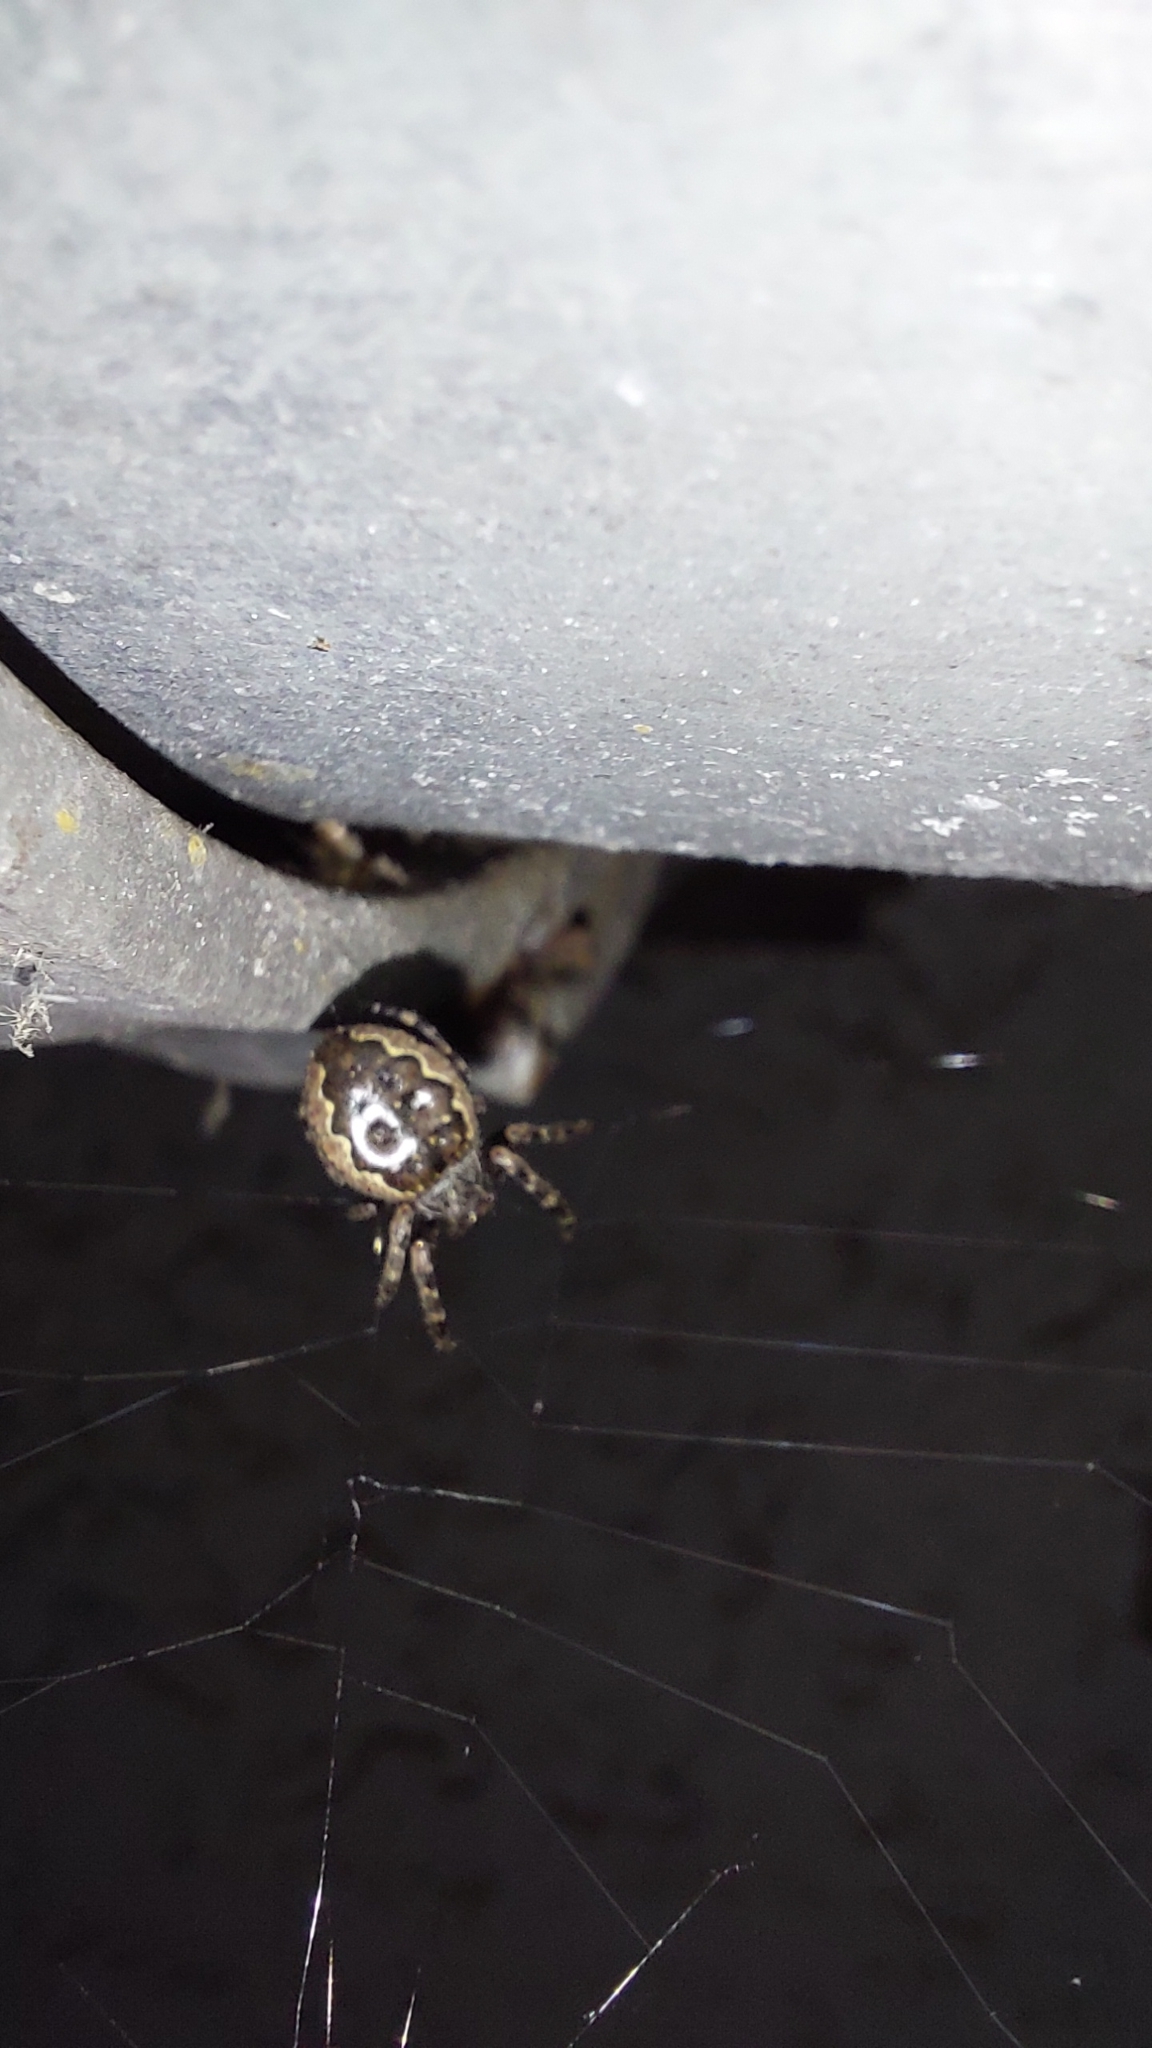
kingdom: Animalia
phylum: Arthropoda
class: Arachnida
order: Araneae
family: Araneidae
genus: Nuctenea
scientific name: Nuctenea umbratica
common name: Toad spider
